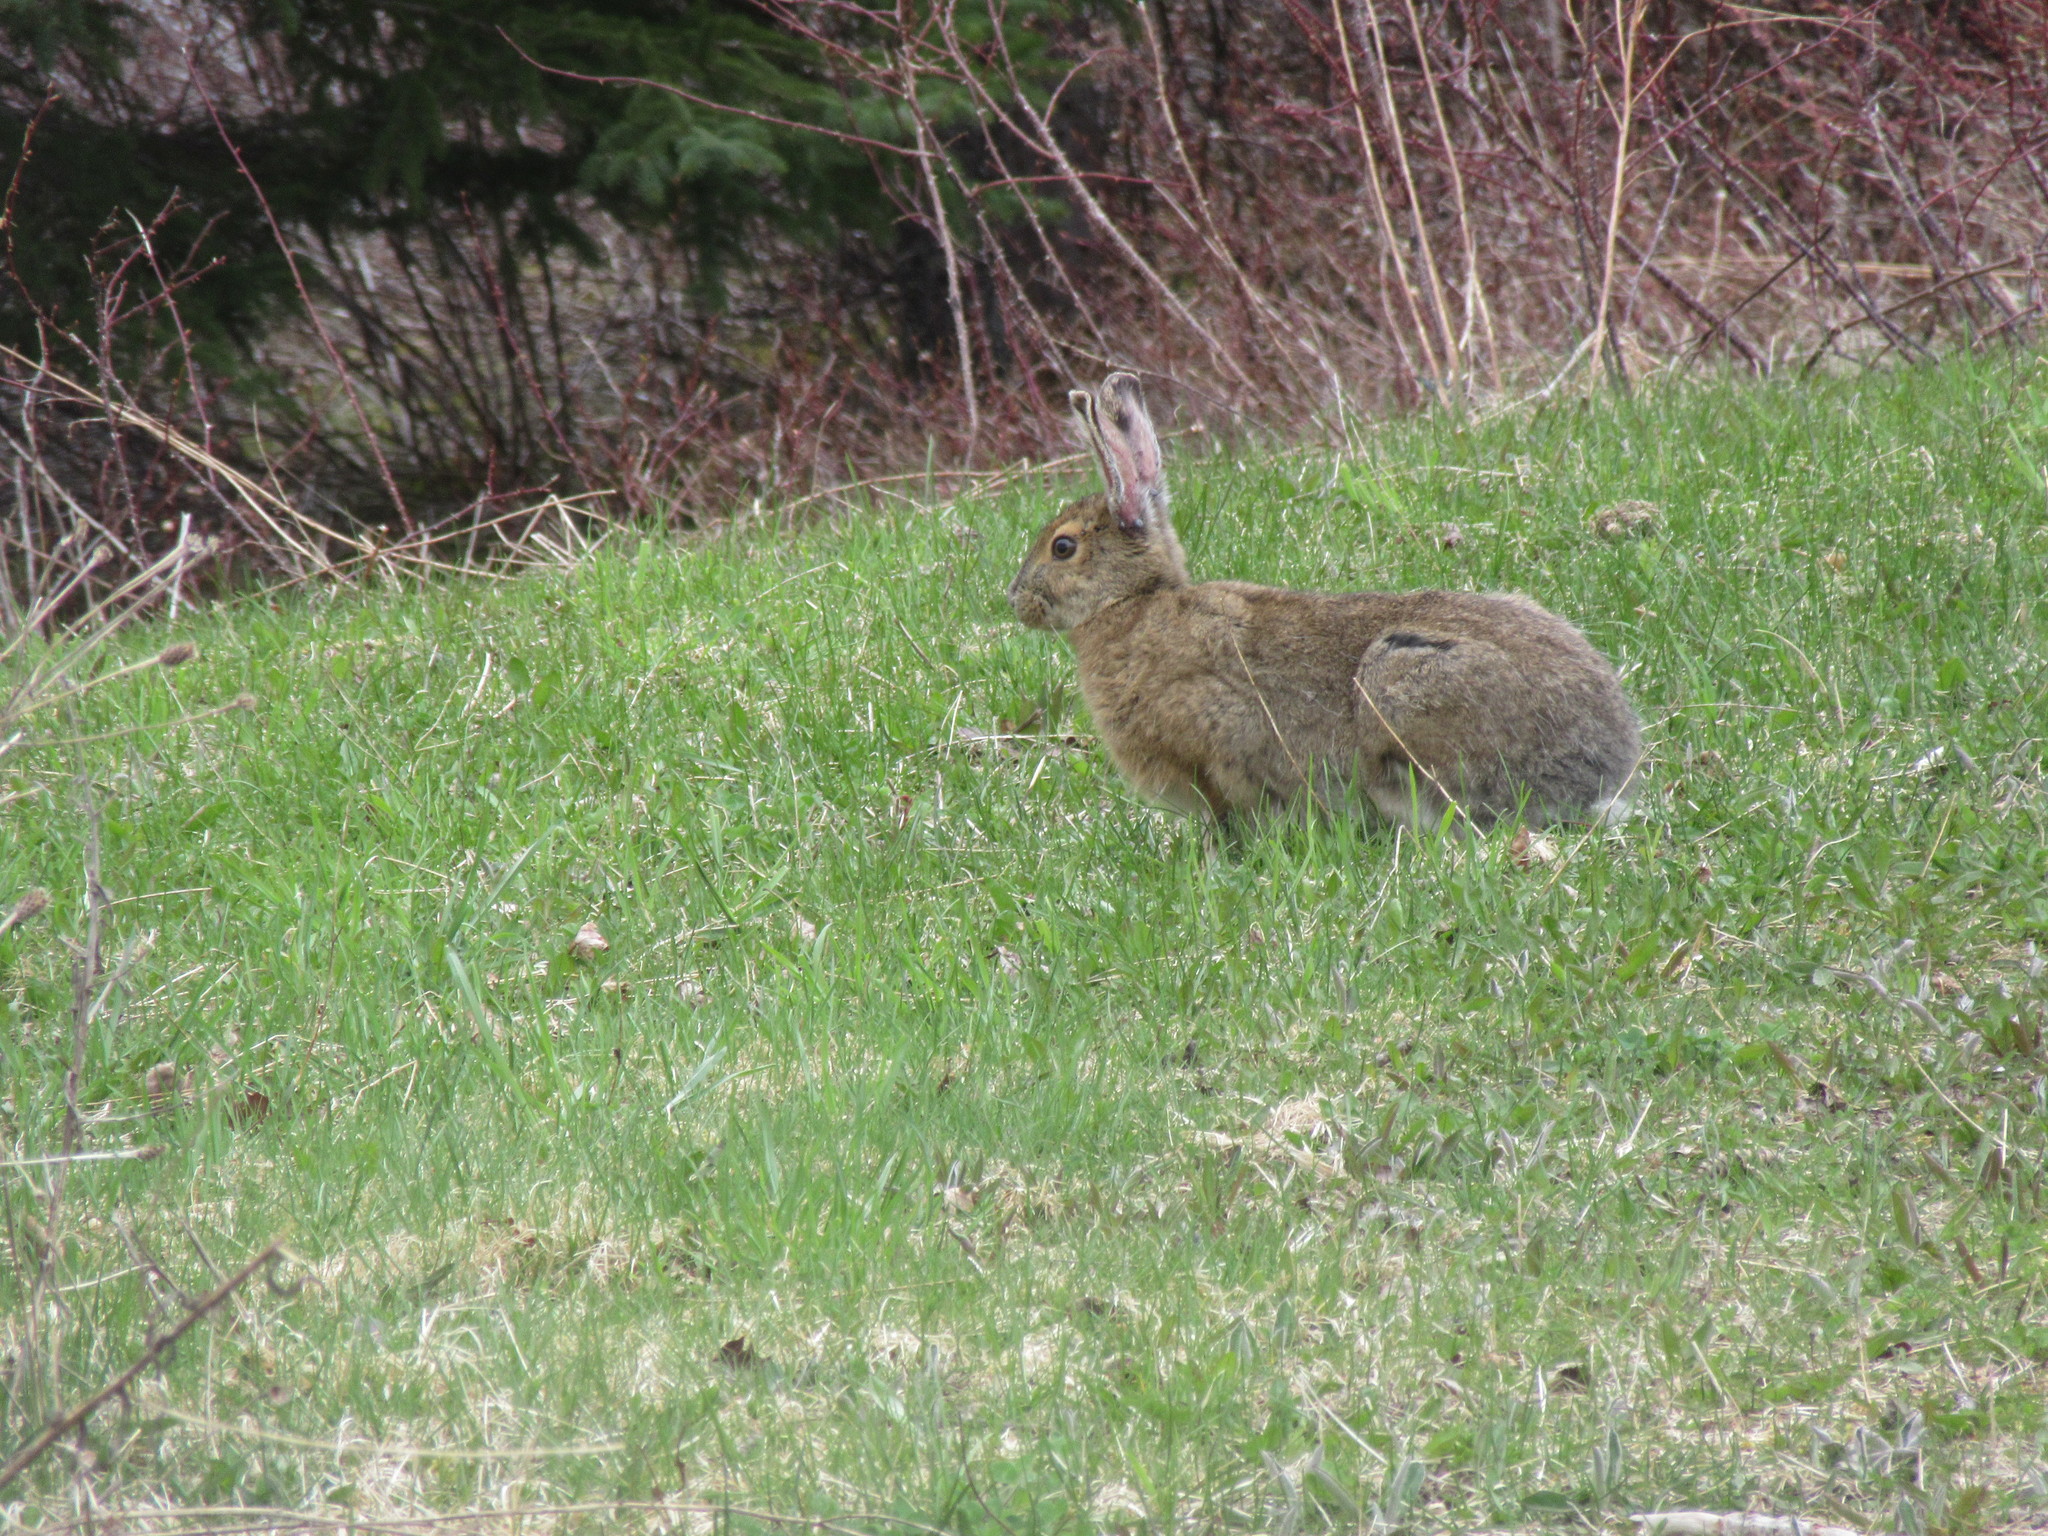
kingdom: Animalia
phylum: Chordata
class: Mammalia
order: Lagomorpha
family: Leporidae
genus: Lepus
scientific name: Lepus americanus
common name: Snowshoe hare
